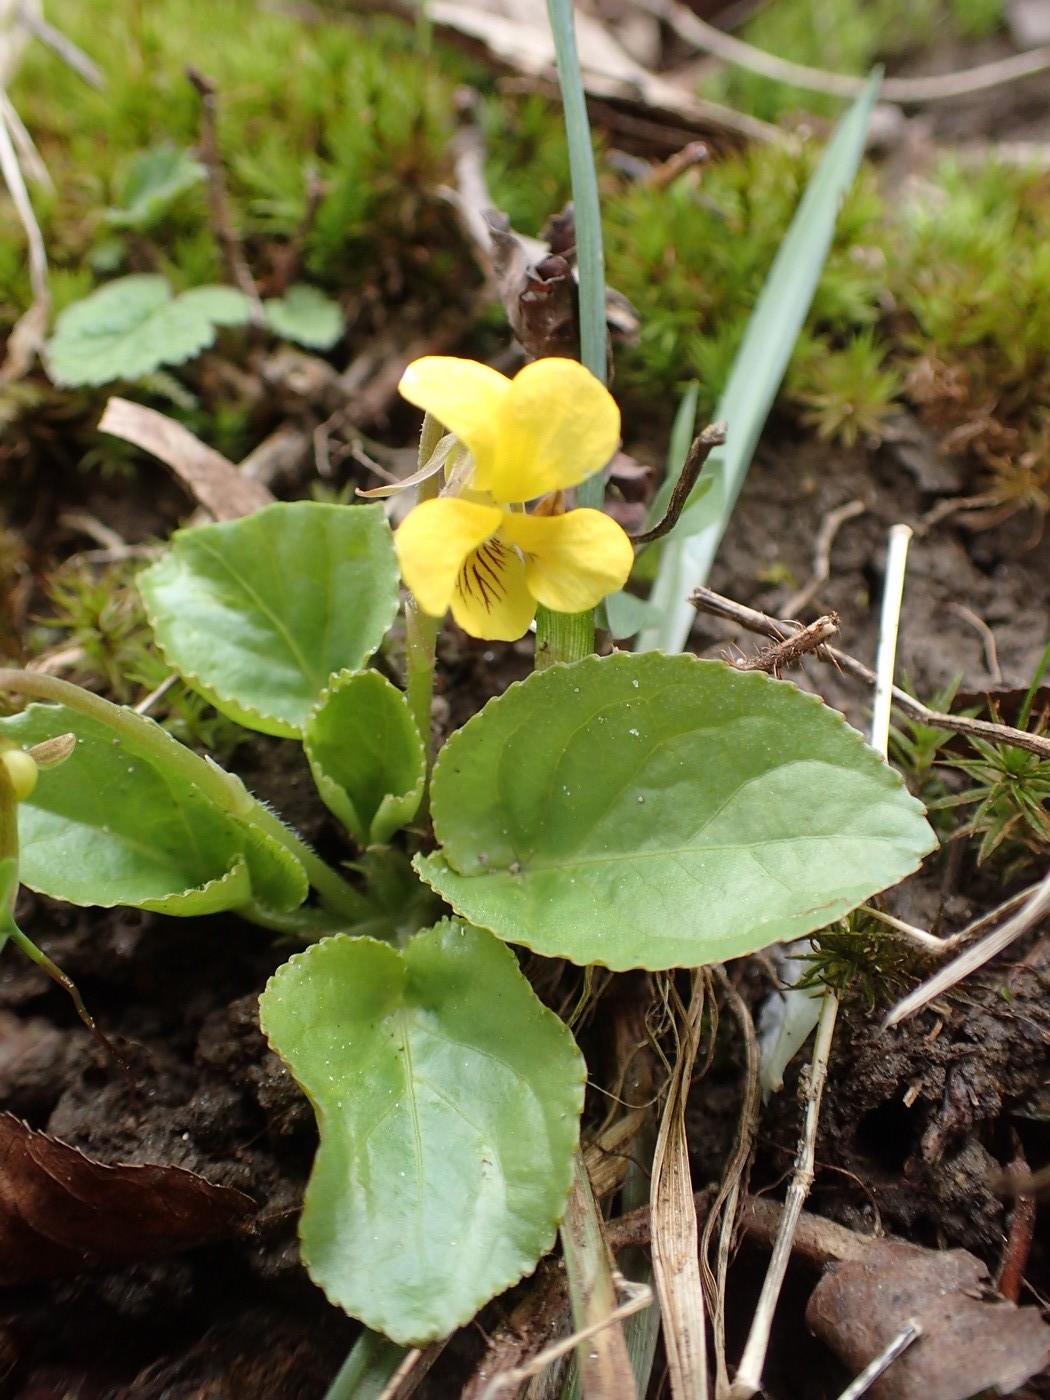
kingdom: Plantae
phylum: Tracheophyta
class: Magnoliopsida
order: Malpighiales
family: Violaceae
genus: Viola
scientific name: Viola rotundifolia
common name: Early yellow violet
